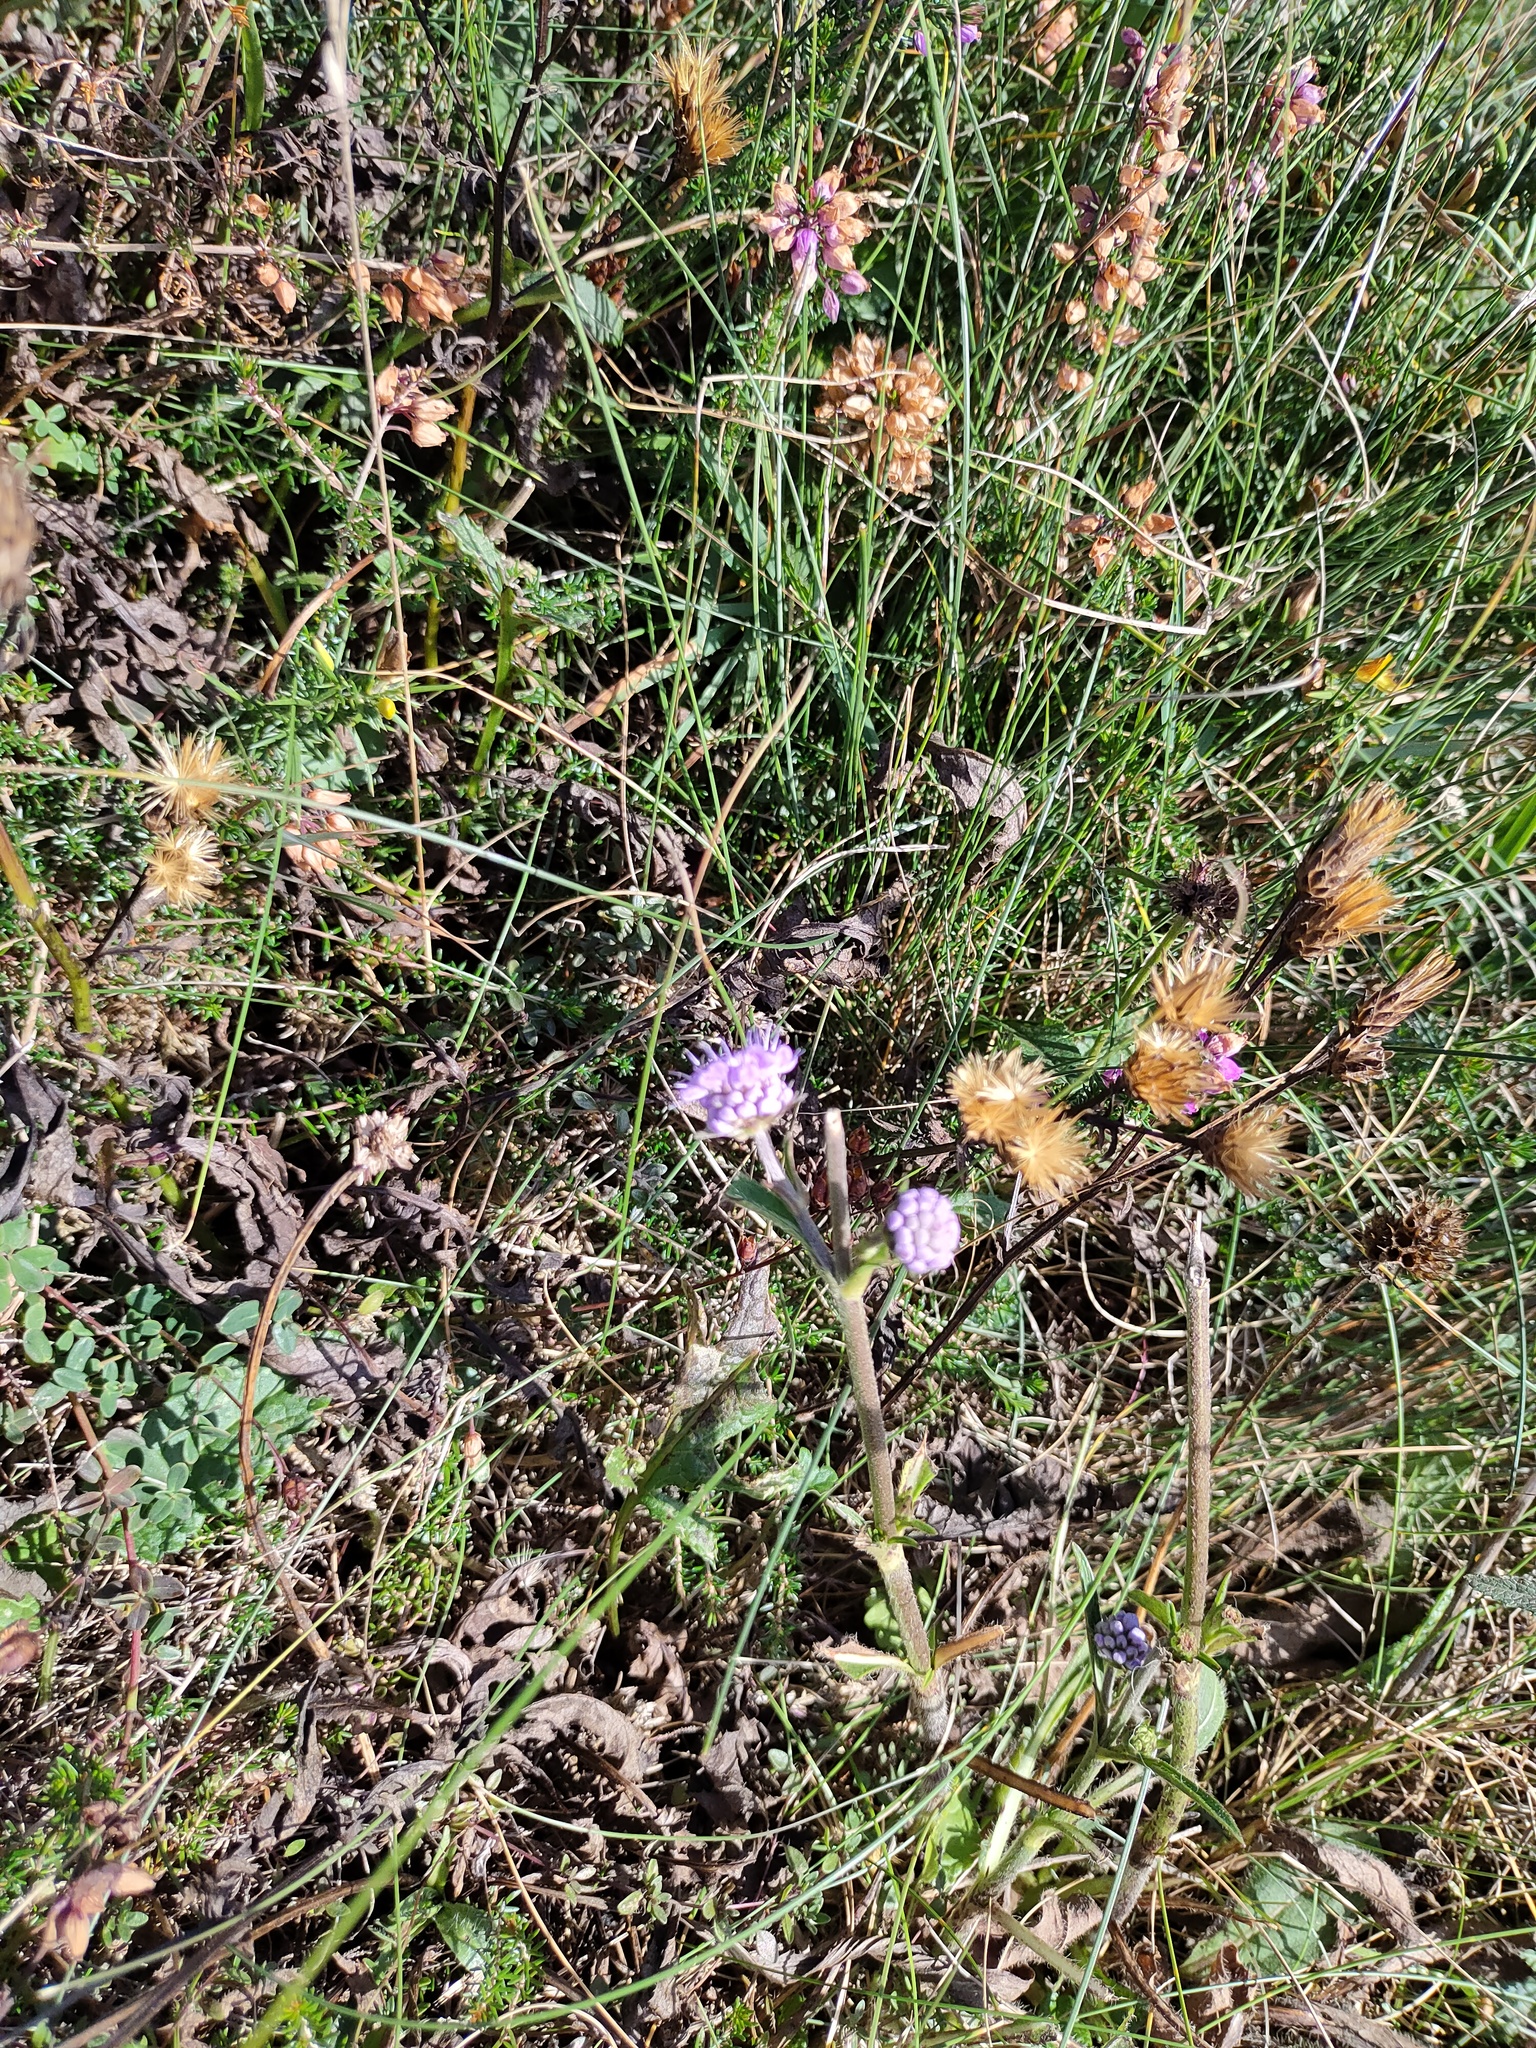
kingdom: Plantae
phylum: Tracheophyta
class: Magnoliopsida
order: Dipsacales
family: Caprifoliaceae
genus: Succisa
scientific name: Succisa pratensis
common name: Devil's-bit
